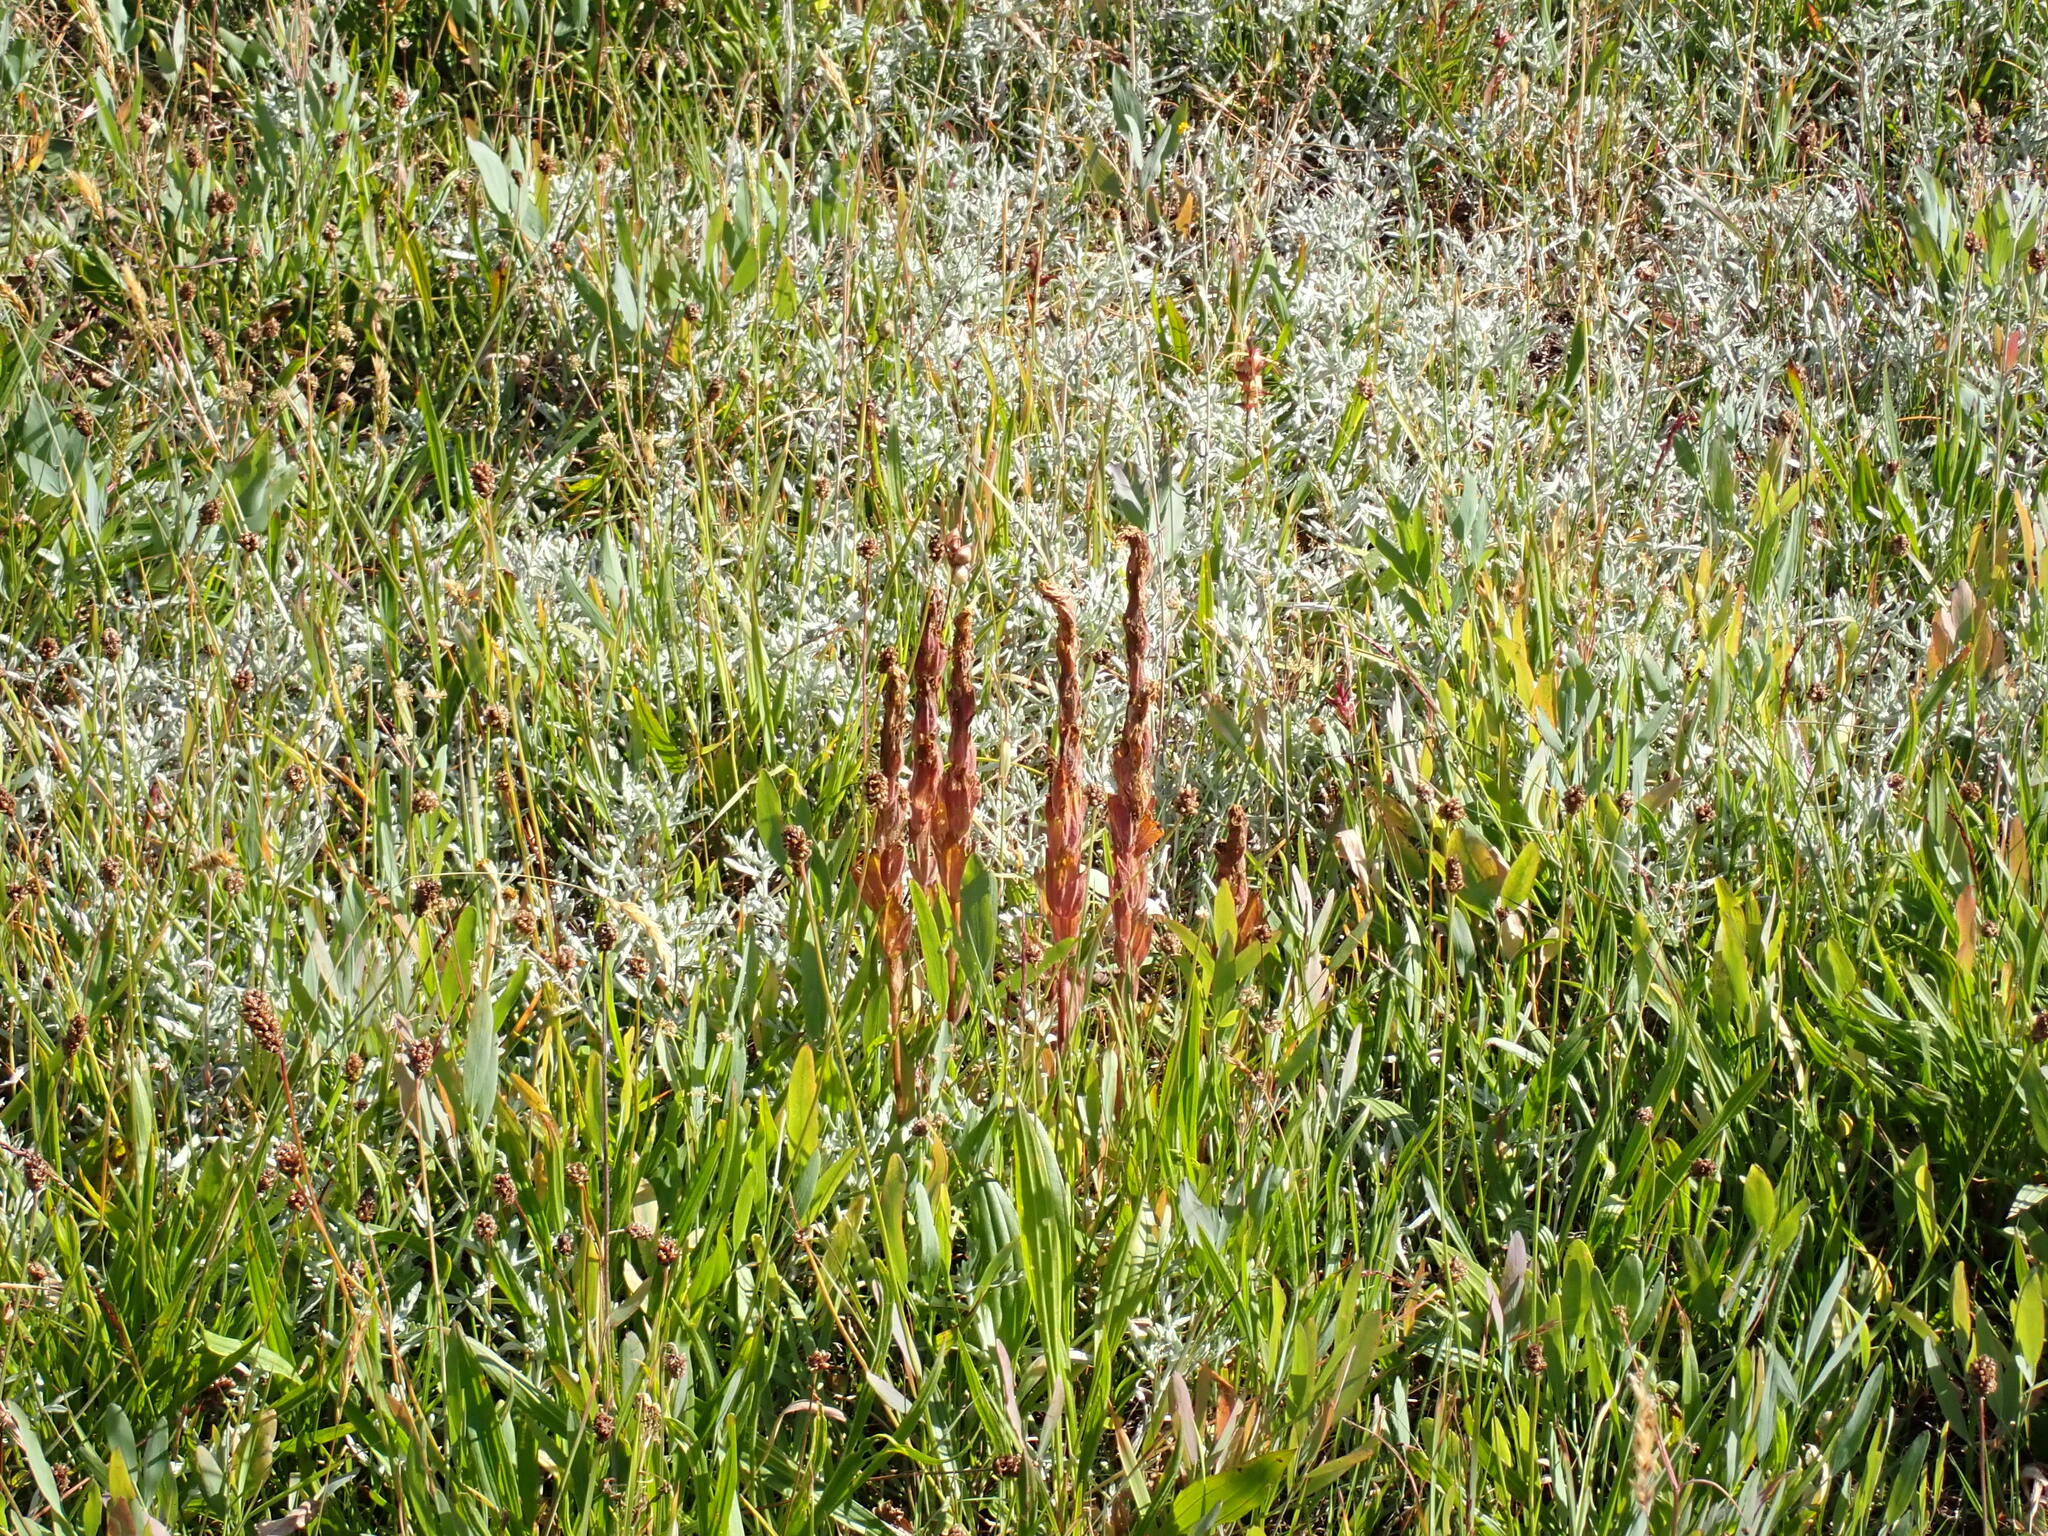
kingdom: Plantae
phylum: Tracheophyta
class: Magnoliopsida
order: Lamiales
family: Orobanchaceae
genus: Castilleja
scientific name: Castilleja levisecta
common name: Golden paintbrush
